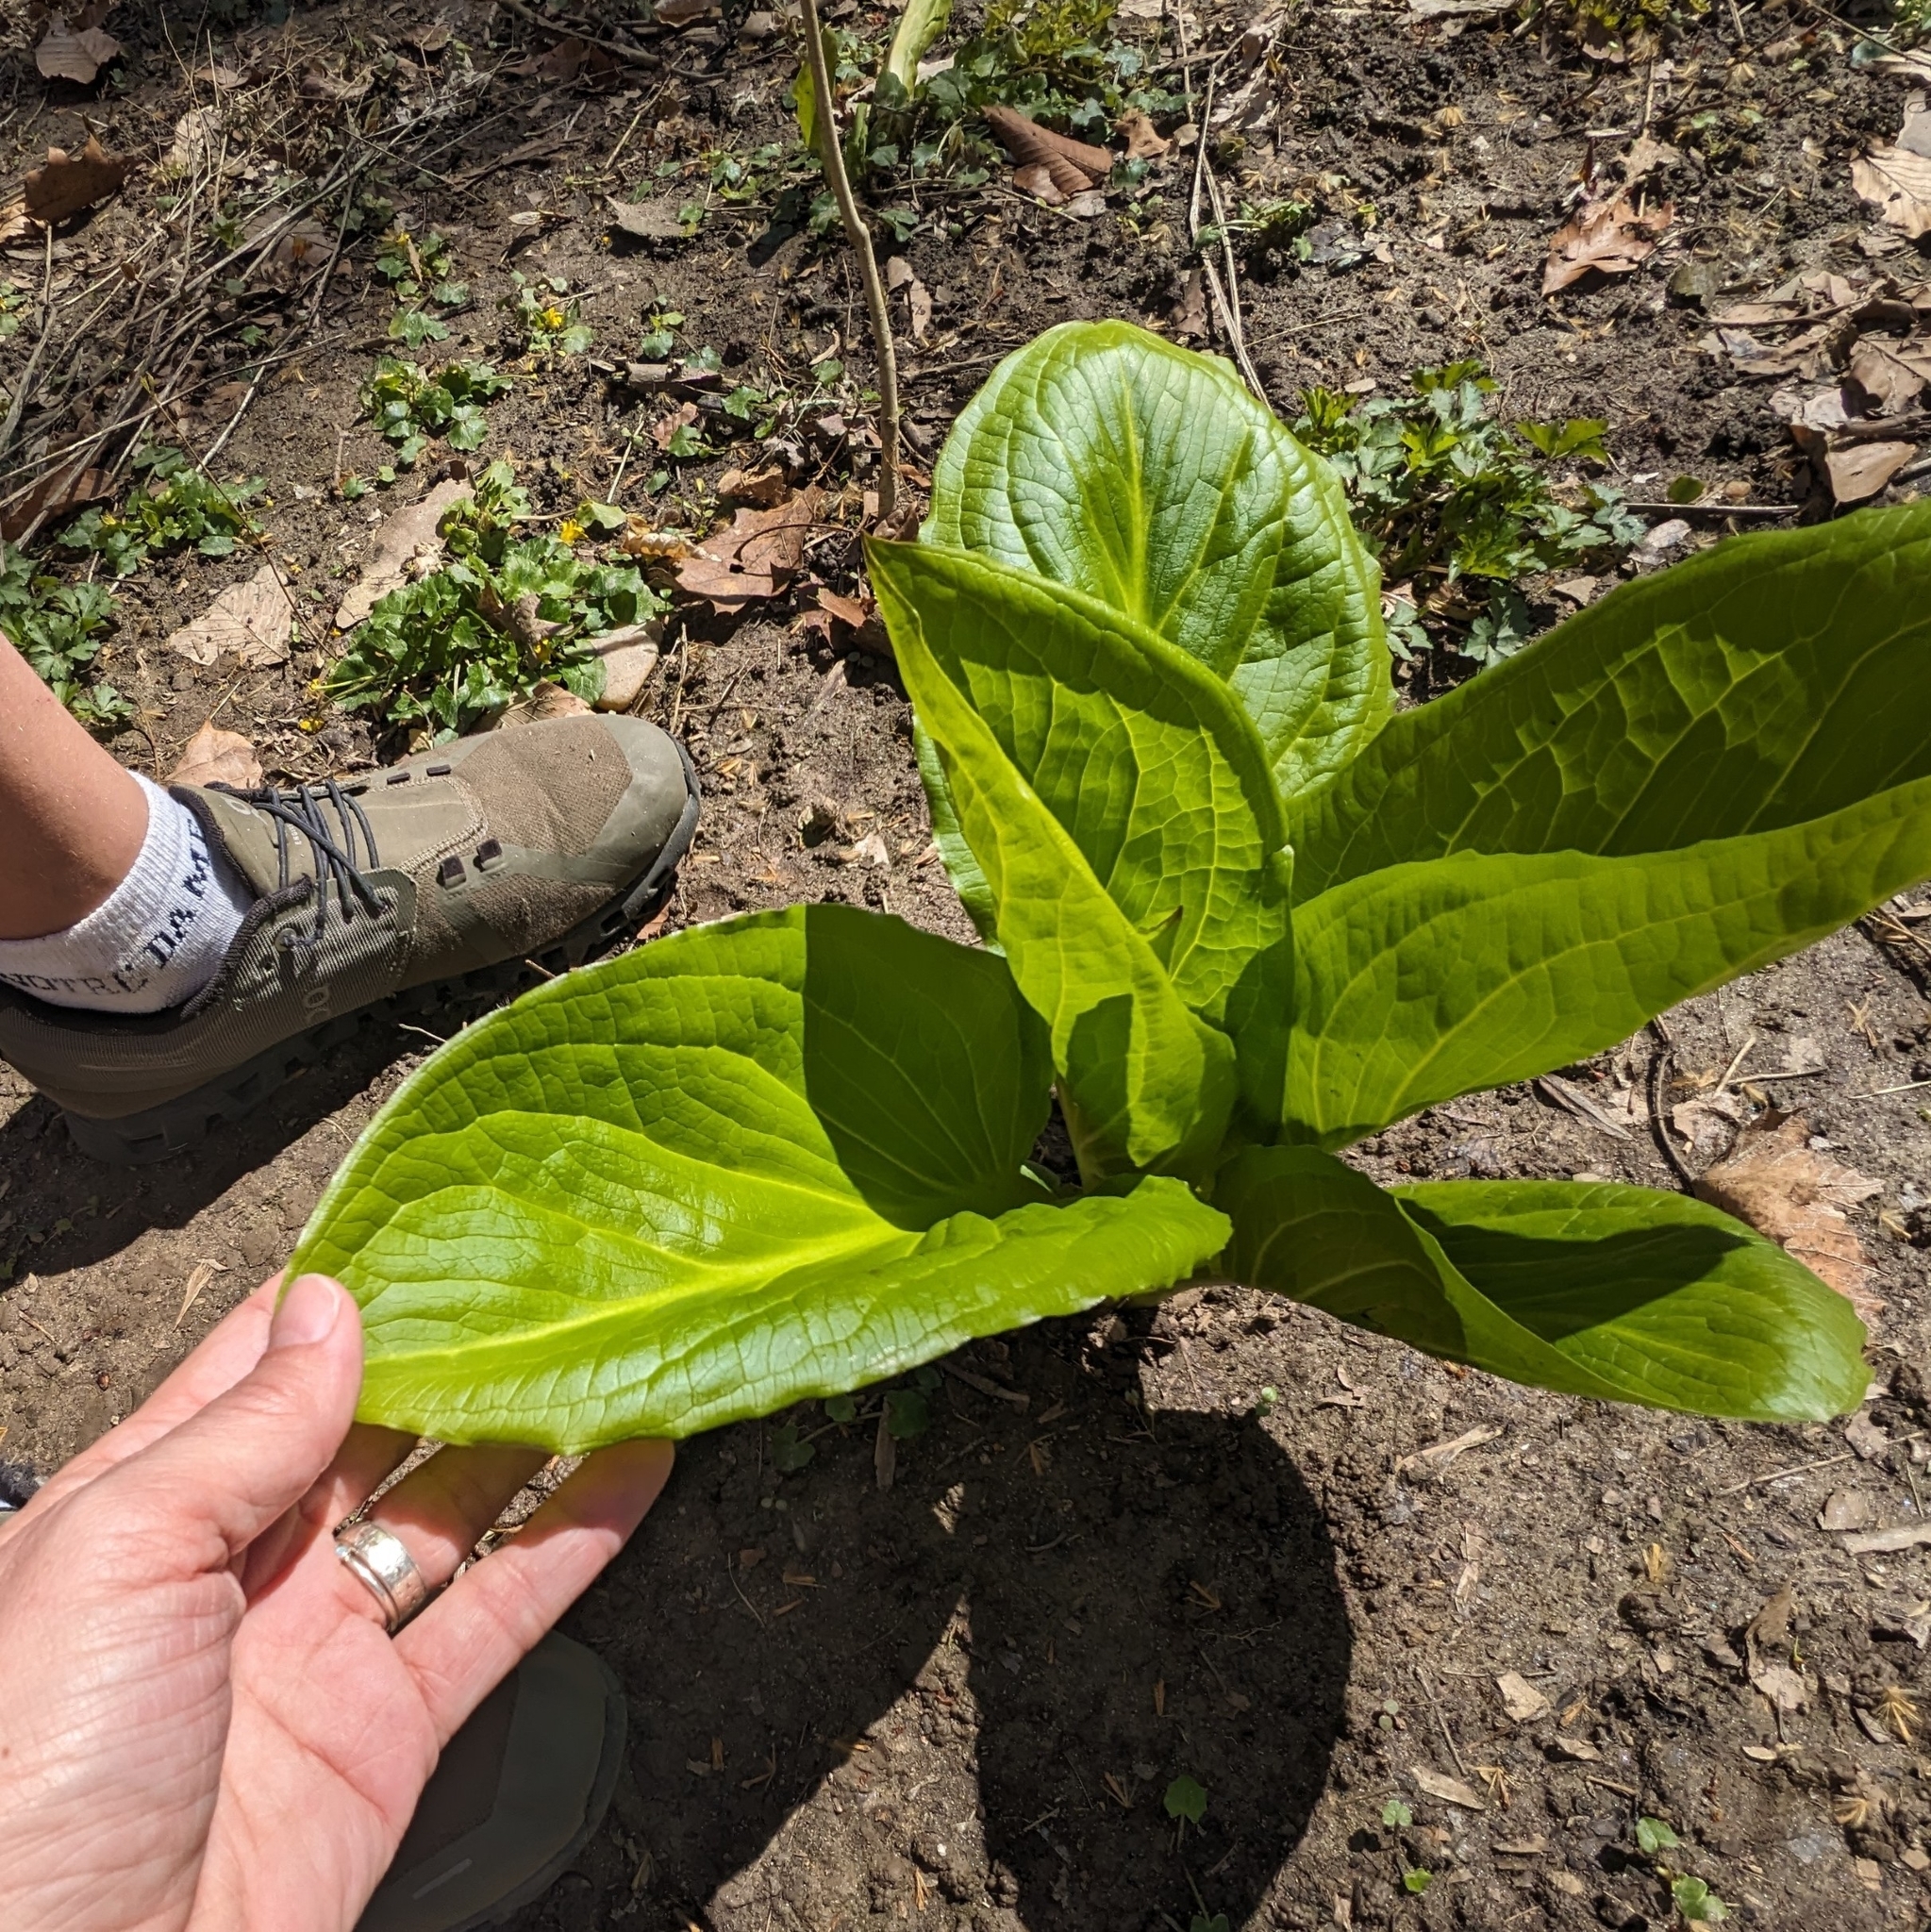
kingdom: Plantae
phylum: Tracheophyta
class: Liliopsida
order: Alismatales
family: Araceae
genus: Symplocarpus
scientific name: Symplocarpus foetidus
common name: Eastern skunk cabbage
